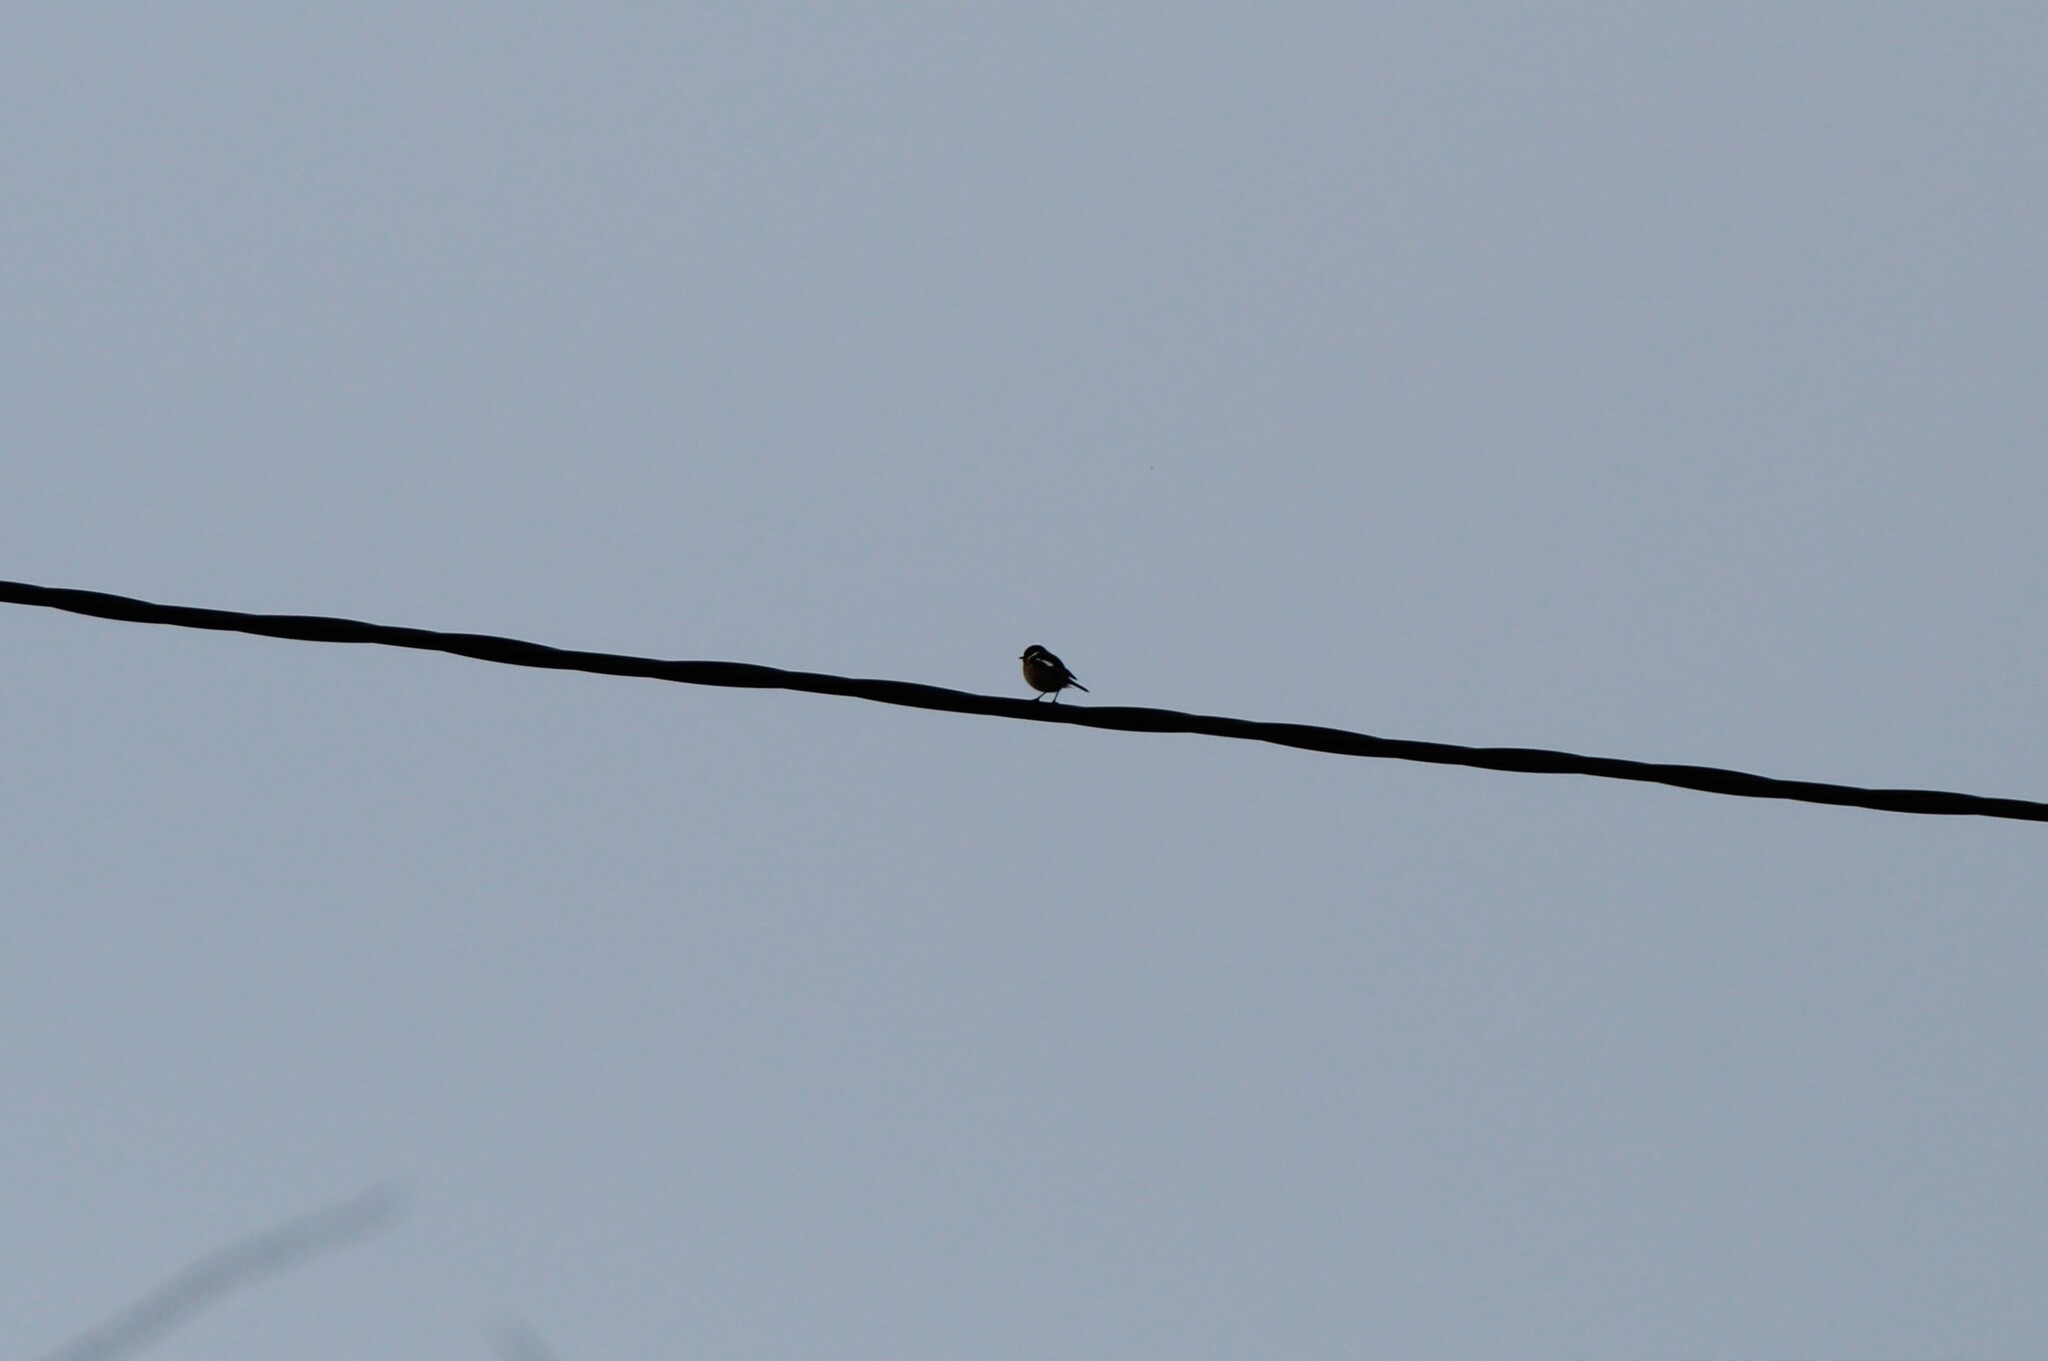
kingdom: Animalia
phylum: Chordata
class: Aves
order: Passeriformes
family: Muscicapidae
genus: Saxicola
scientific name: Saxicola rubicola
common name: European stonechat
